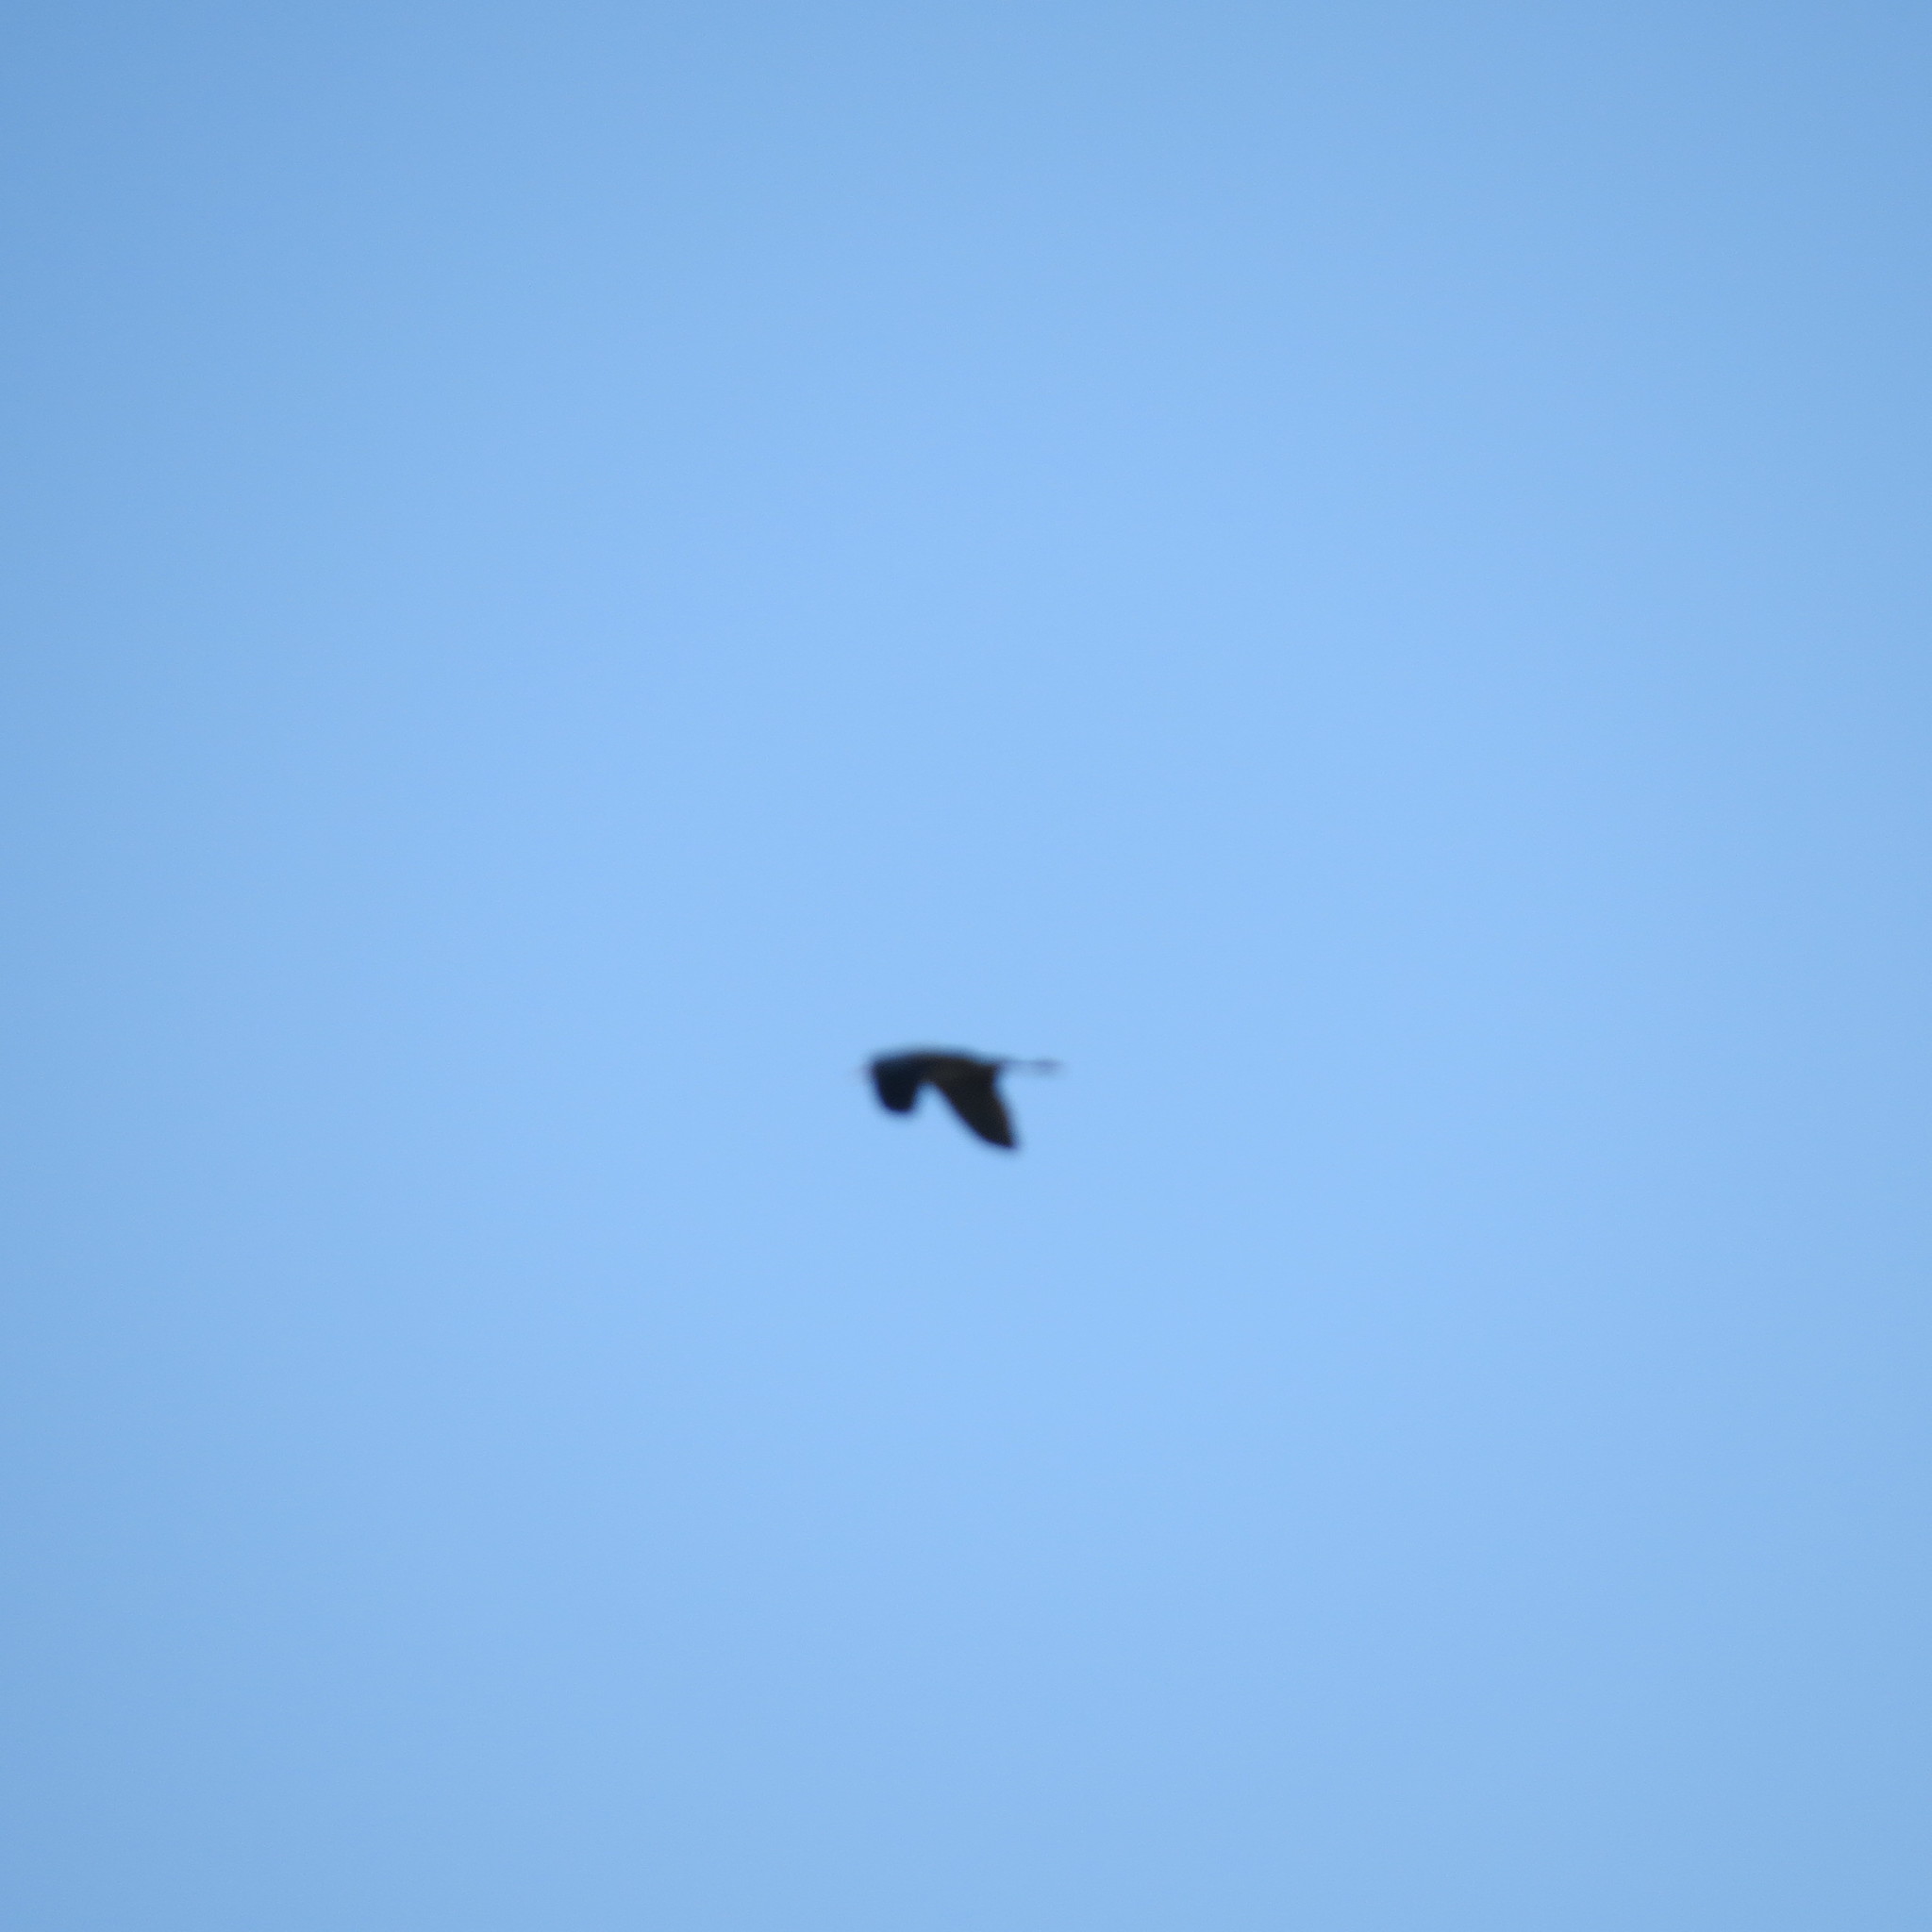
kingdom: Animalia
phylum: Chordata
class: Aves
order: Pelecaniformes
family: Ardeidae
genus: Ardea
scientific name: Ardea cinerea
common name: Grey heron
